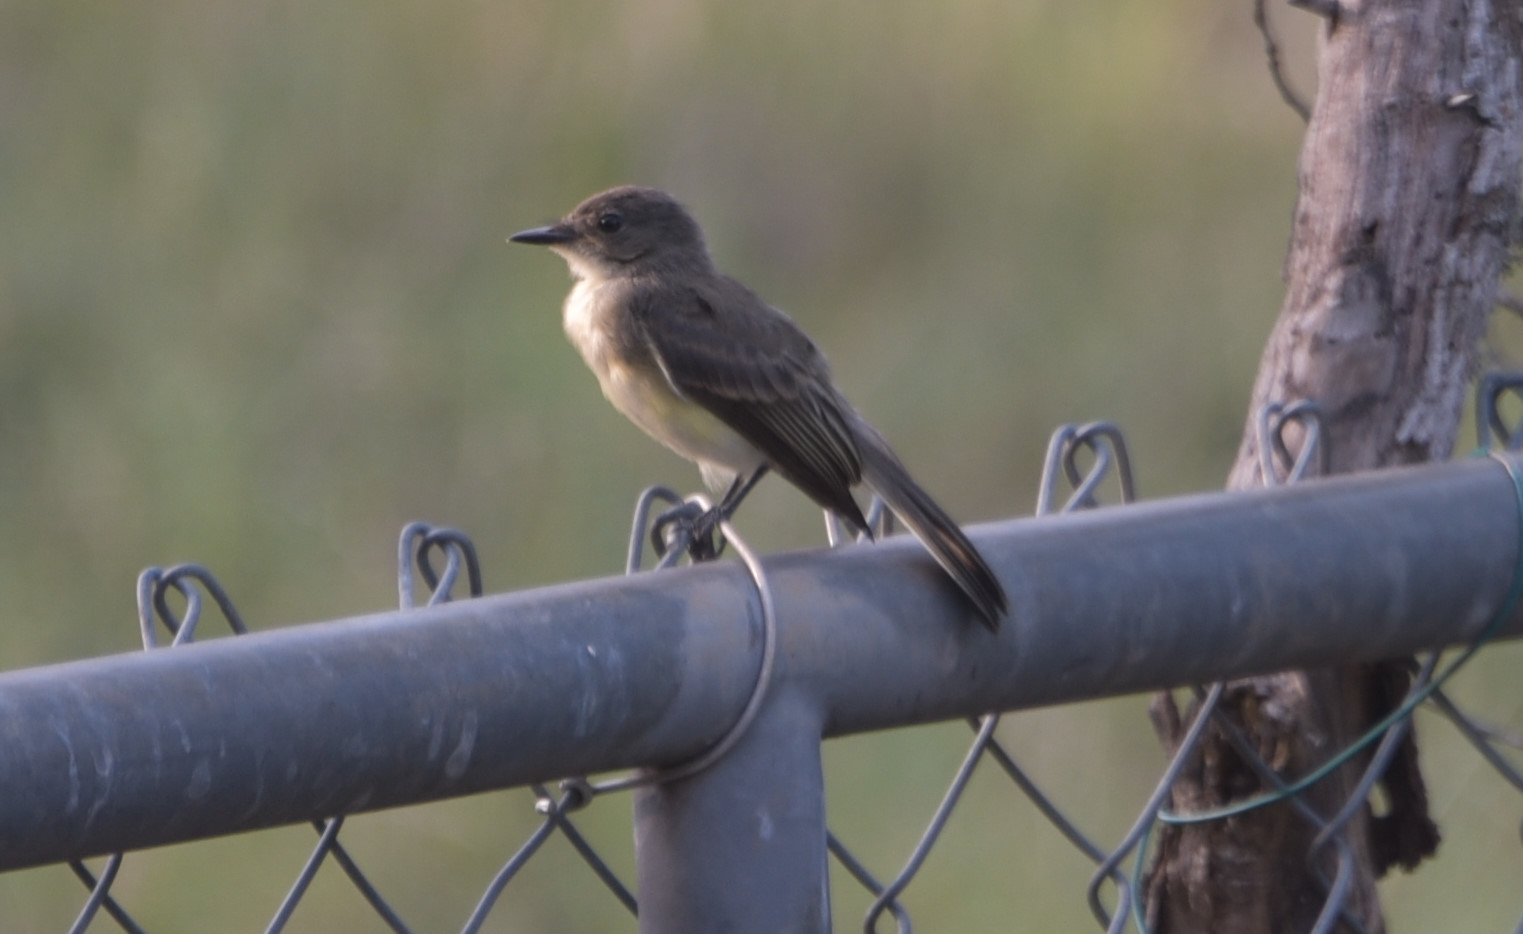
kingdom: Animalia
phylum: Chordata
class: Aves
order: Passeriformes
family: Tyrannidae
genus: Sayornis
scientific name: Sayornis phoebe
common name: Eastern phoebe
